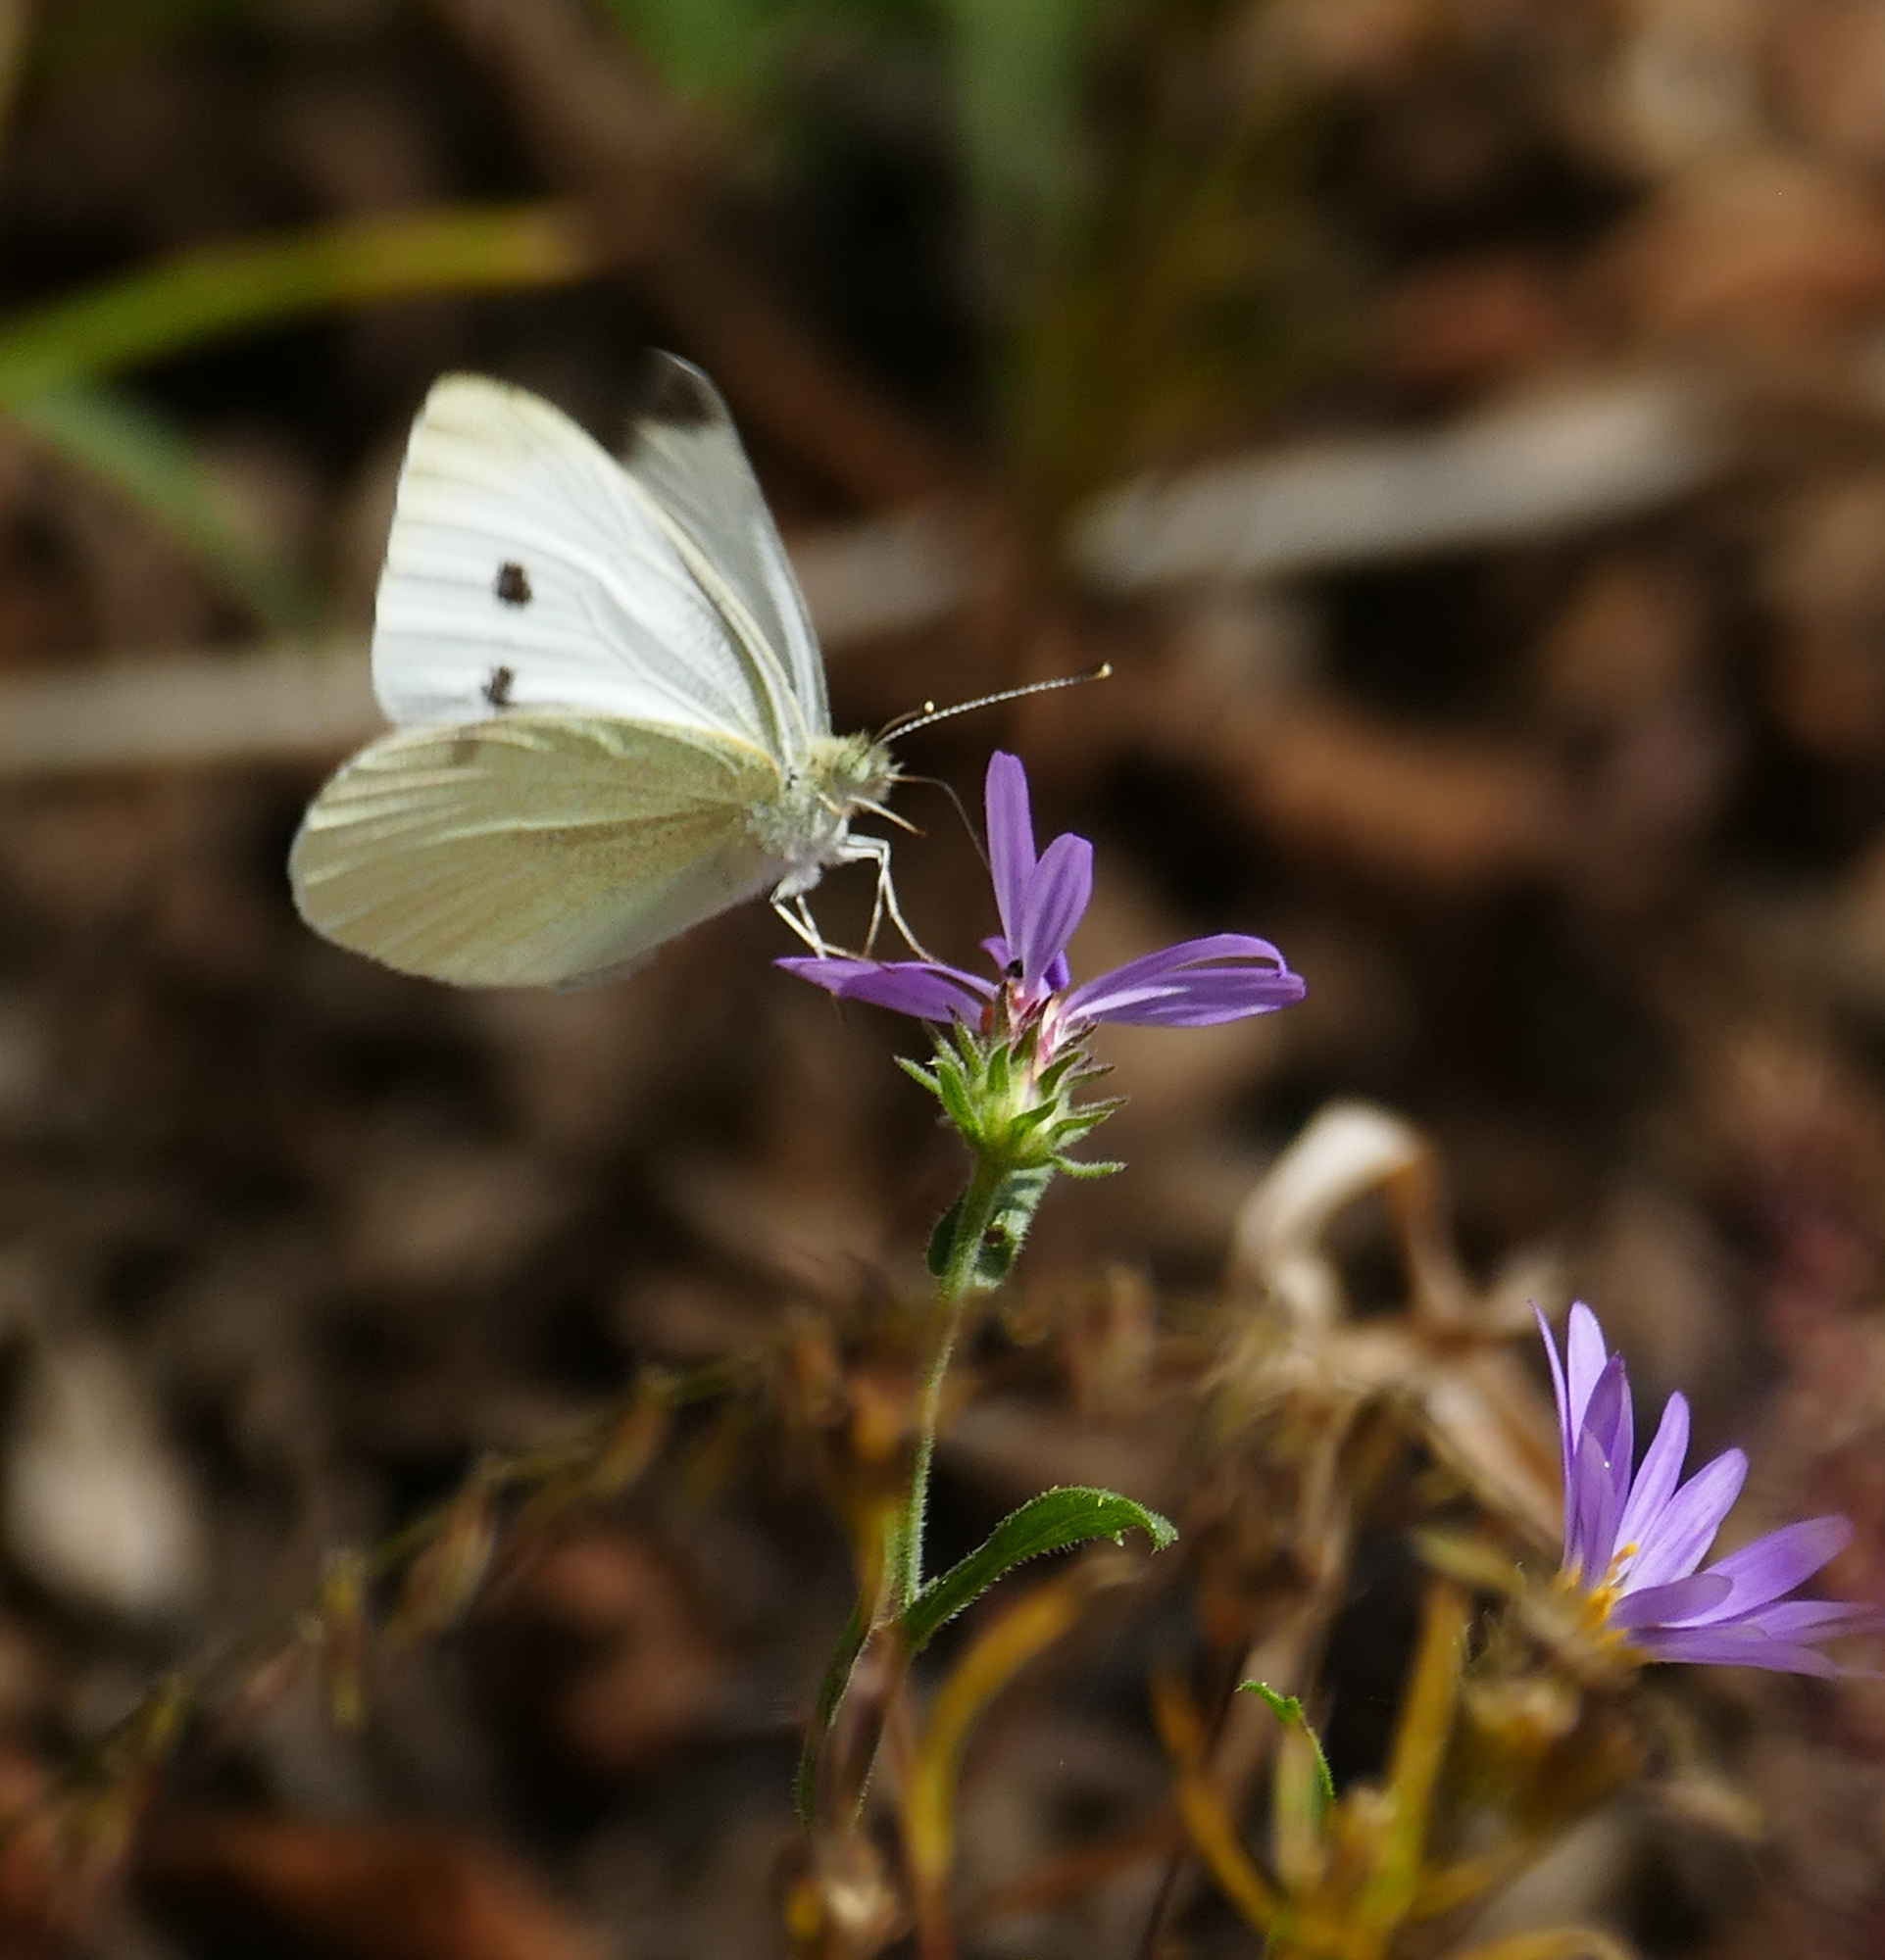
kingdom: Animalia
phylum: Arthropoda
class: Insecta
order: Lepidoptera
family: Pieridae
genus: Pieris
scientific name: Pieris rapae
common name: Small white
